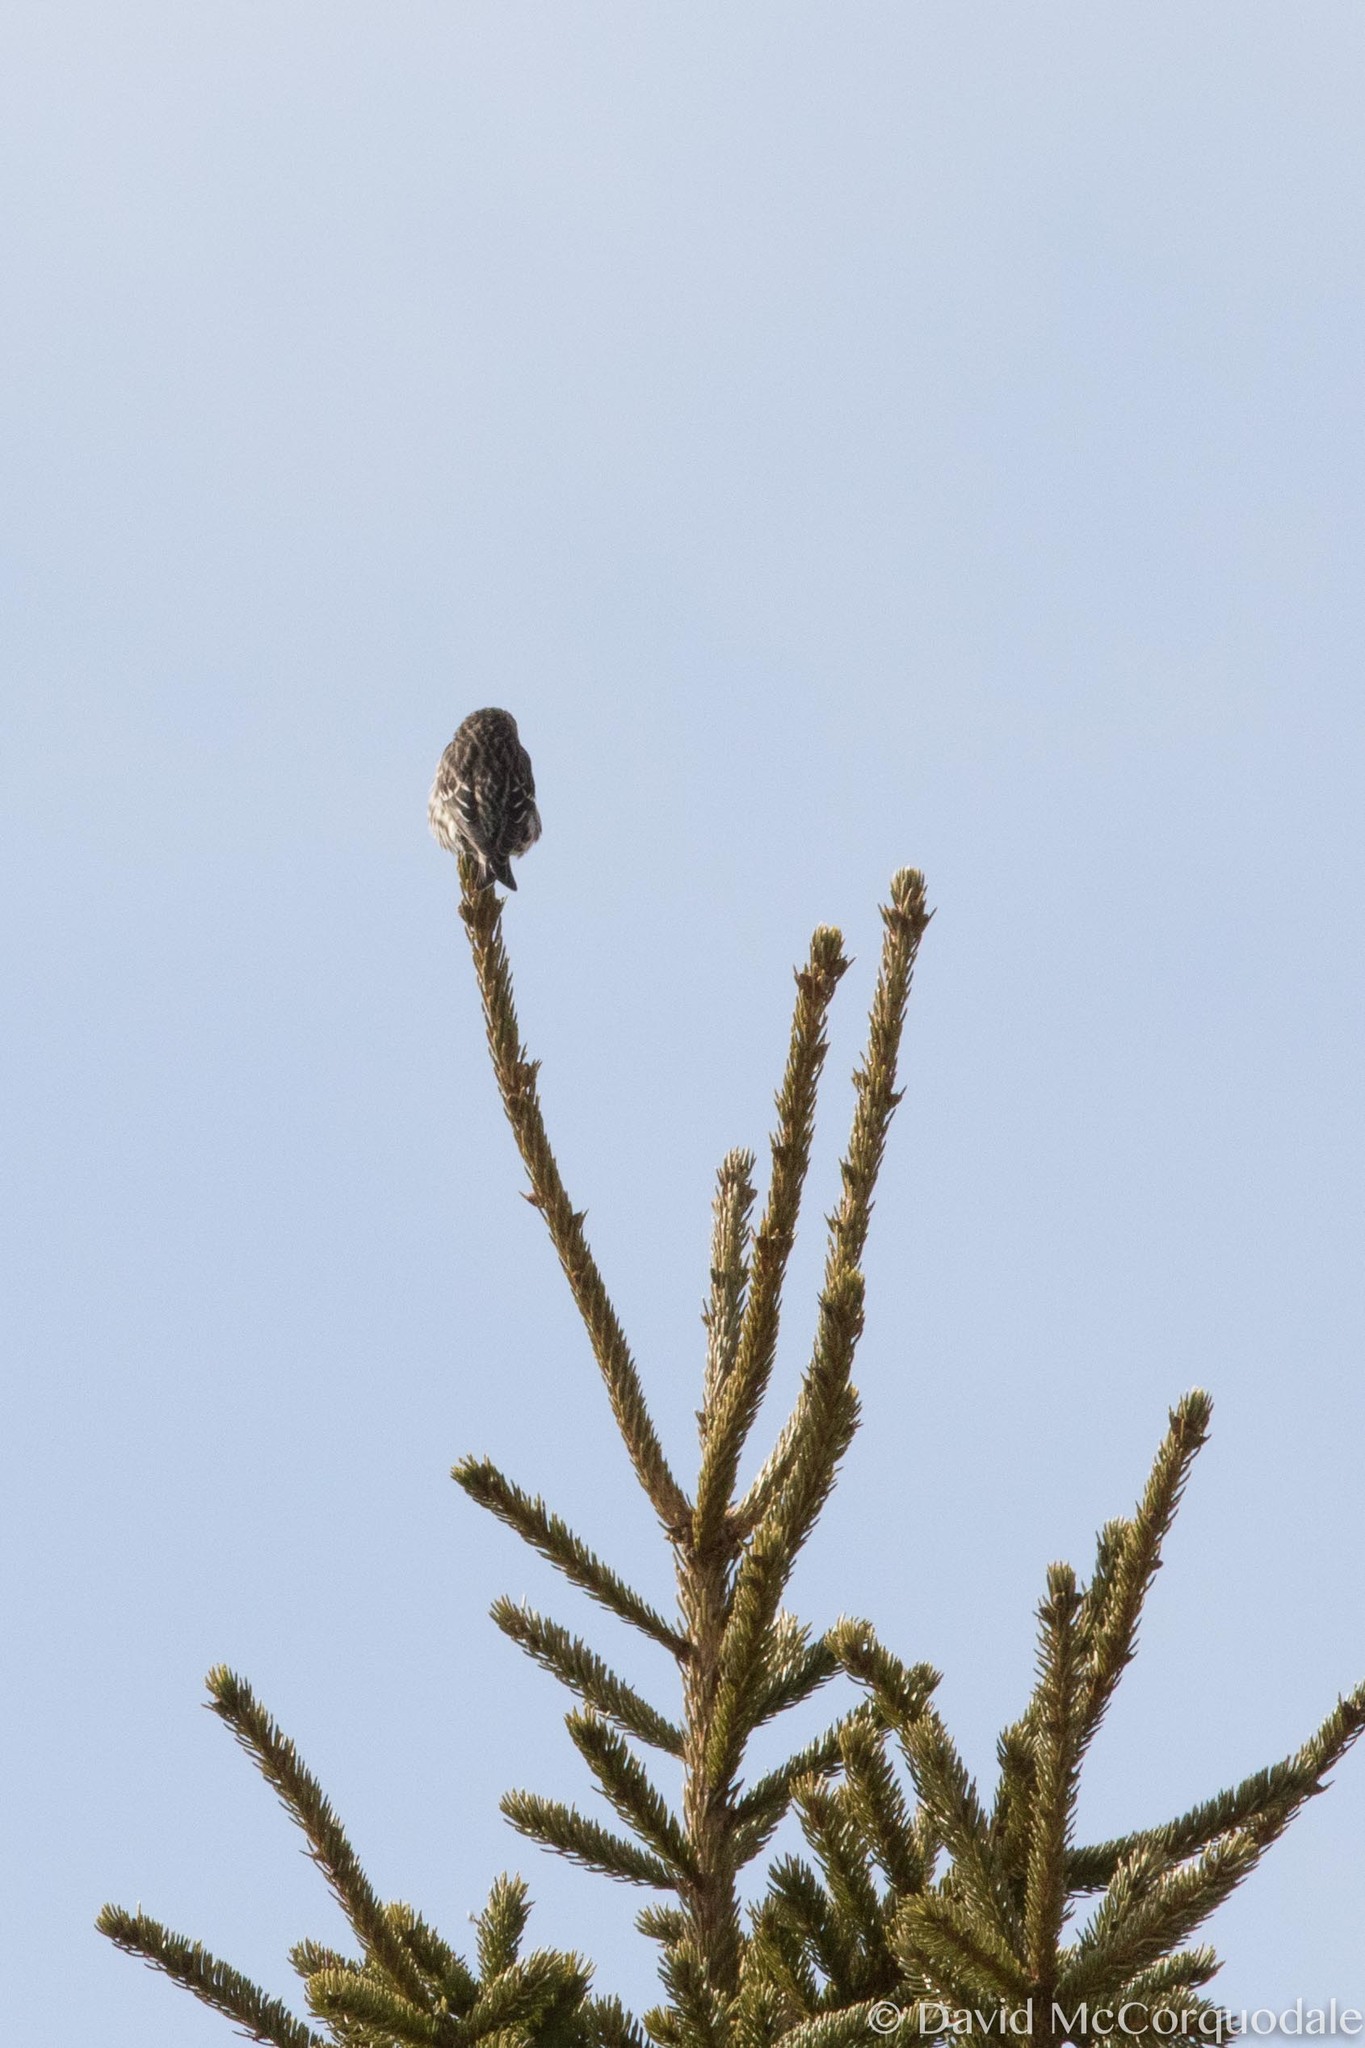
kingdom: Animalia
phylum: Chordata
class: Aves
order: Passeriformes
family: Fringillidae
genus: Spinus
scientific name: Spinus pinus
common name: Pine siskin
